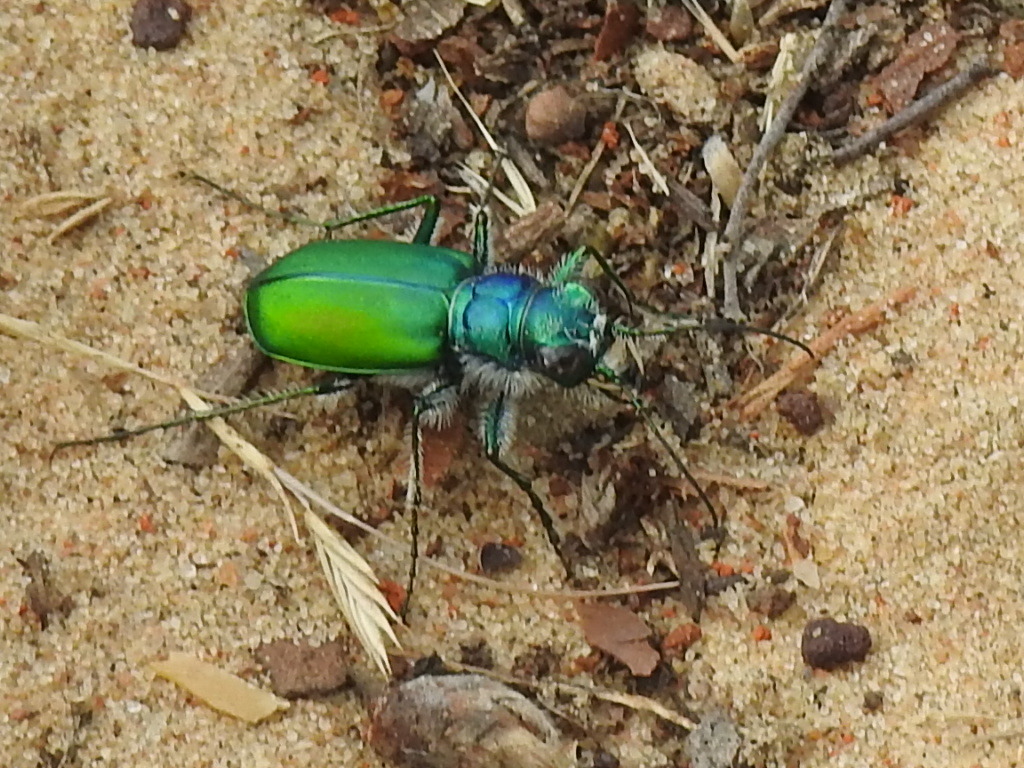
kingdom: Animalia
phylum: Arthropoda
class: Insecta
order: Coleoptera
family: Carabidae
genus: Cicindela
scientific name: Cicindela scutellaris
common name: Festive tiger beetle
